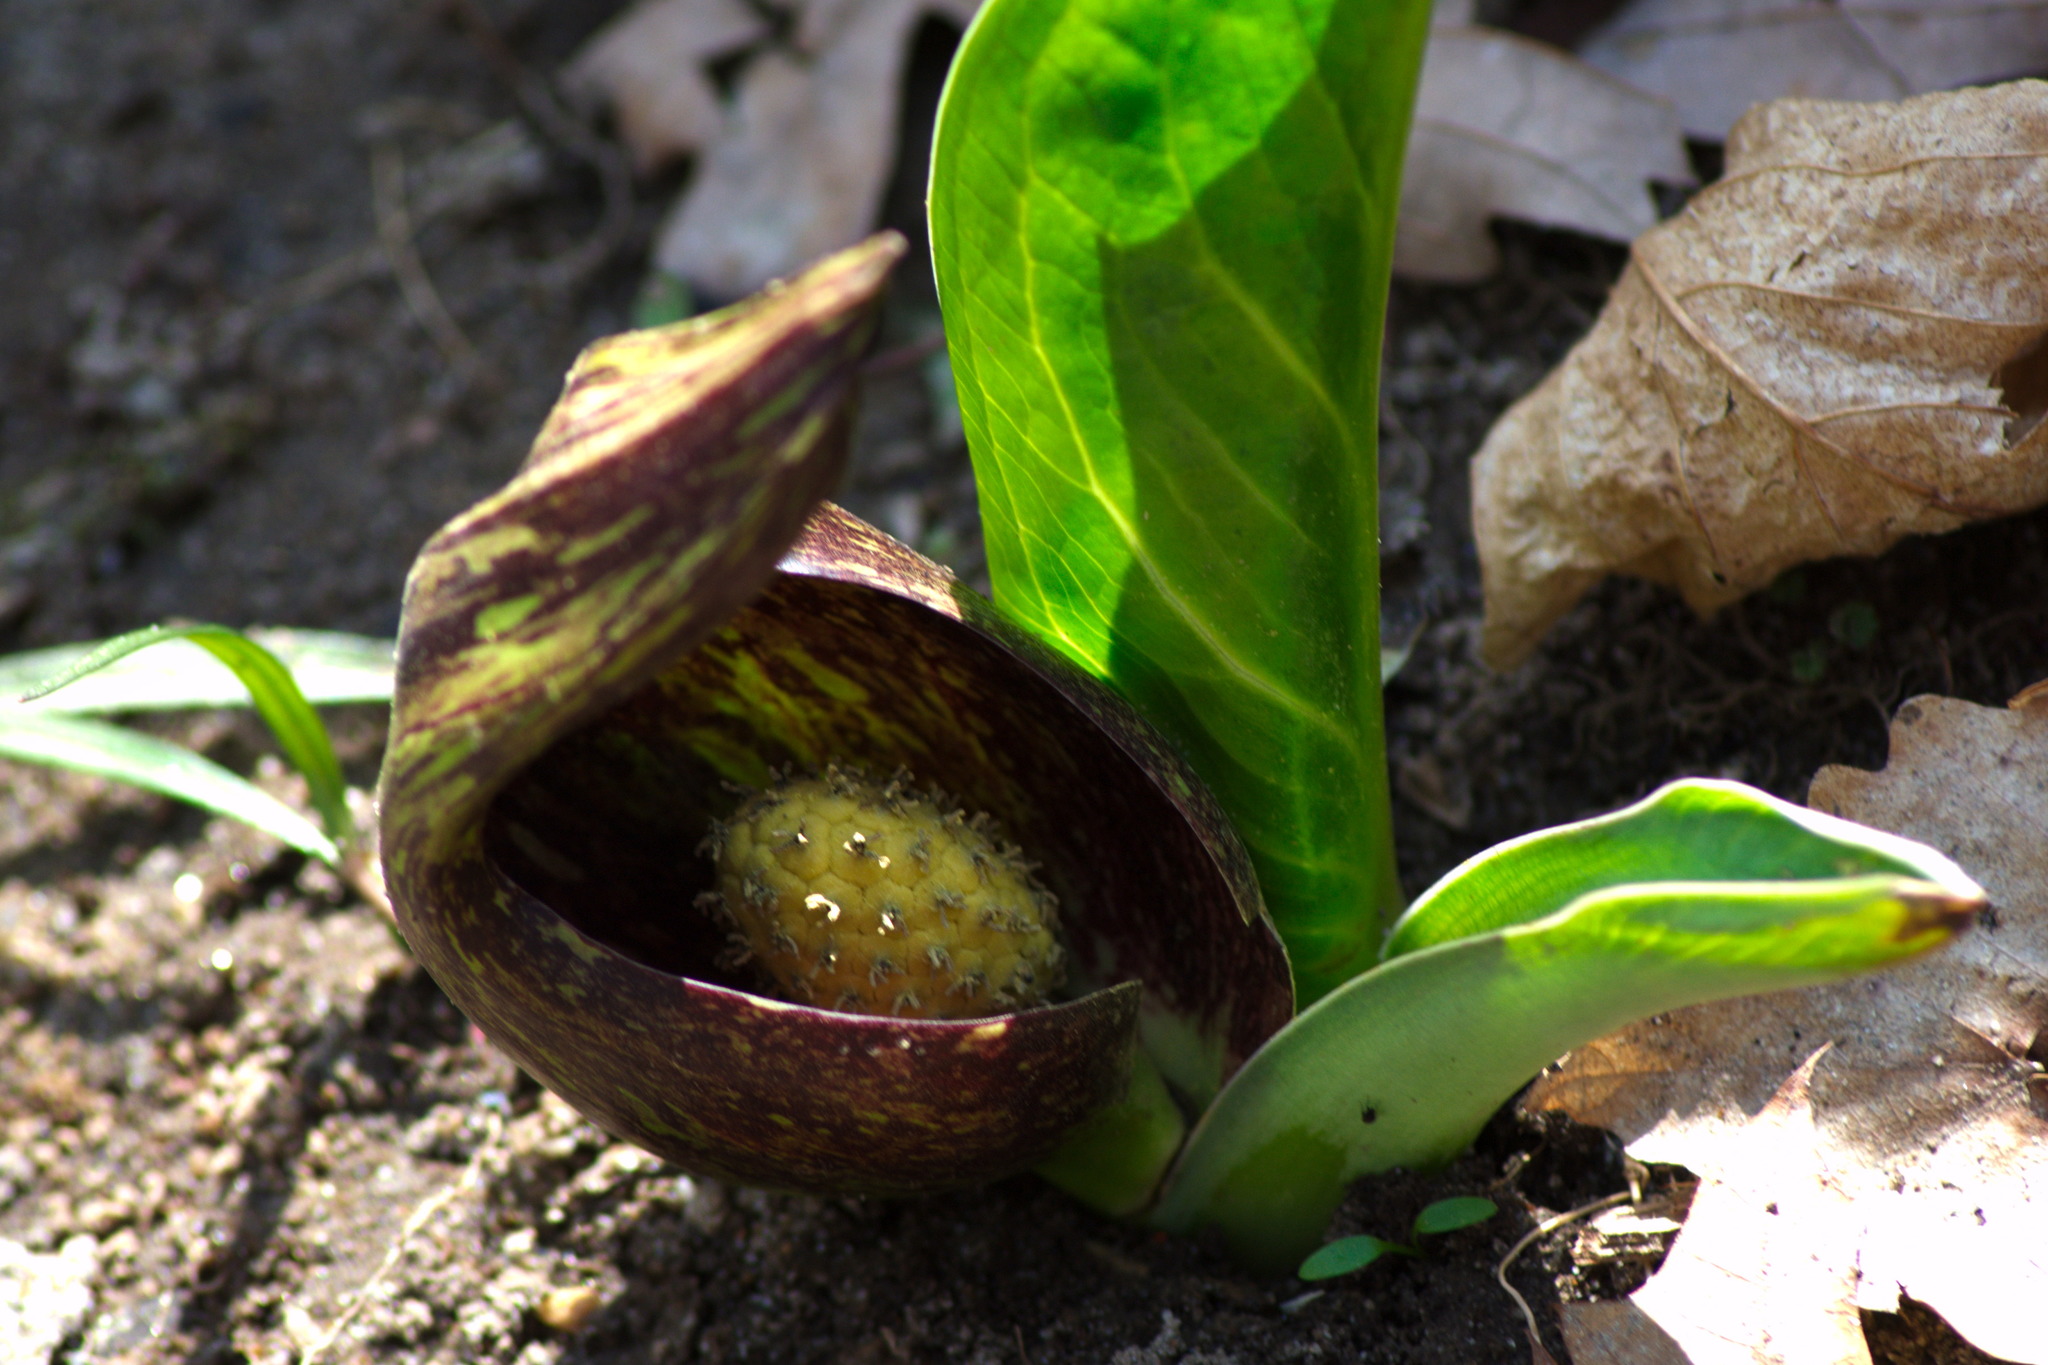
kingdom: Plantae
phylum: Tracheophyta
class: Liliopsida
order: Alismatales
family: Araceae
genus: Symplocarpus
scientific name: Symplocarpus foetidus
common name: Eastern skunk cabbage
